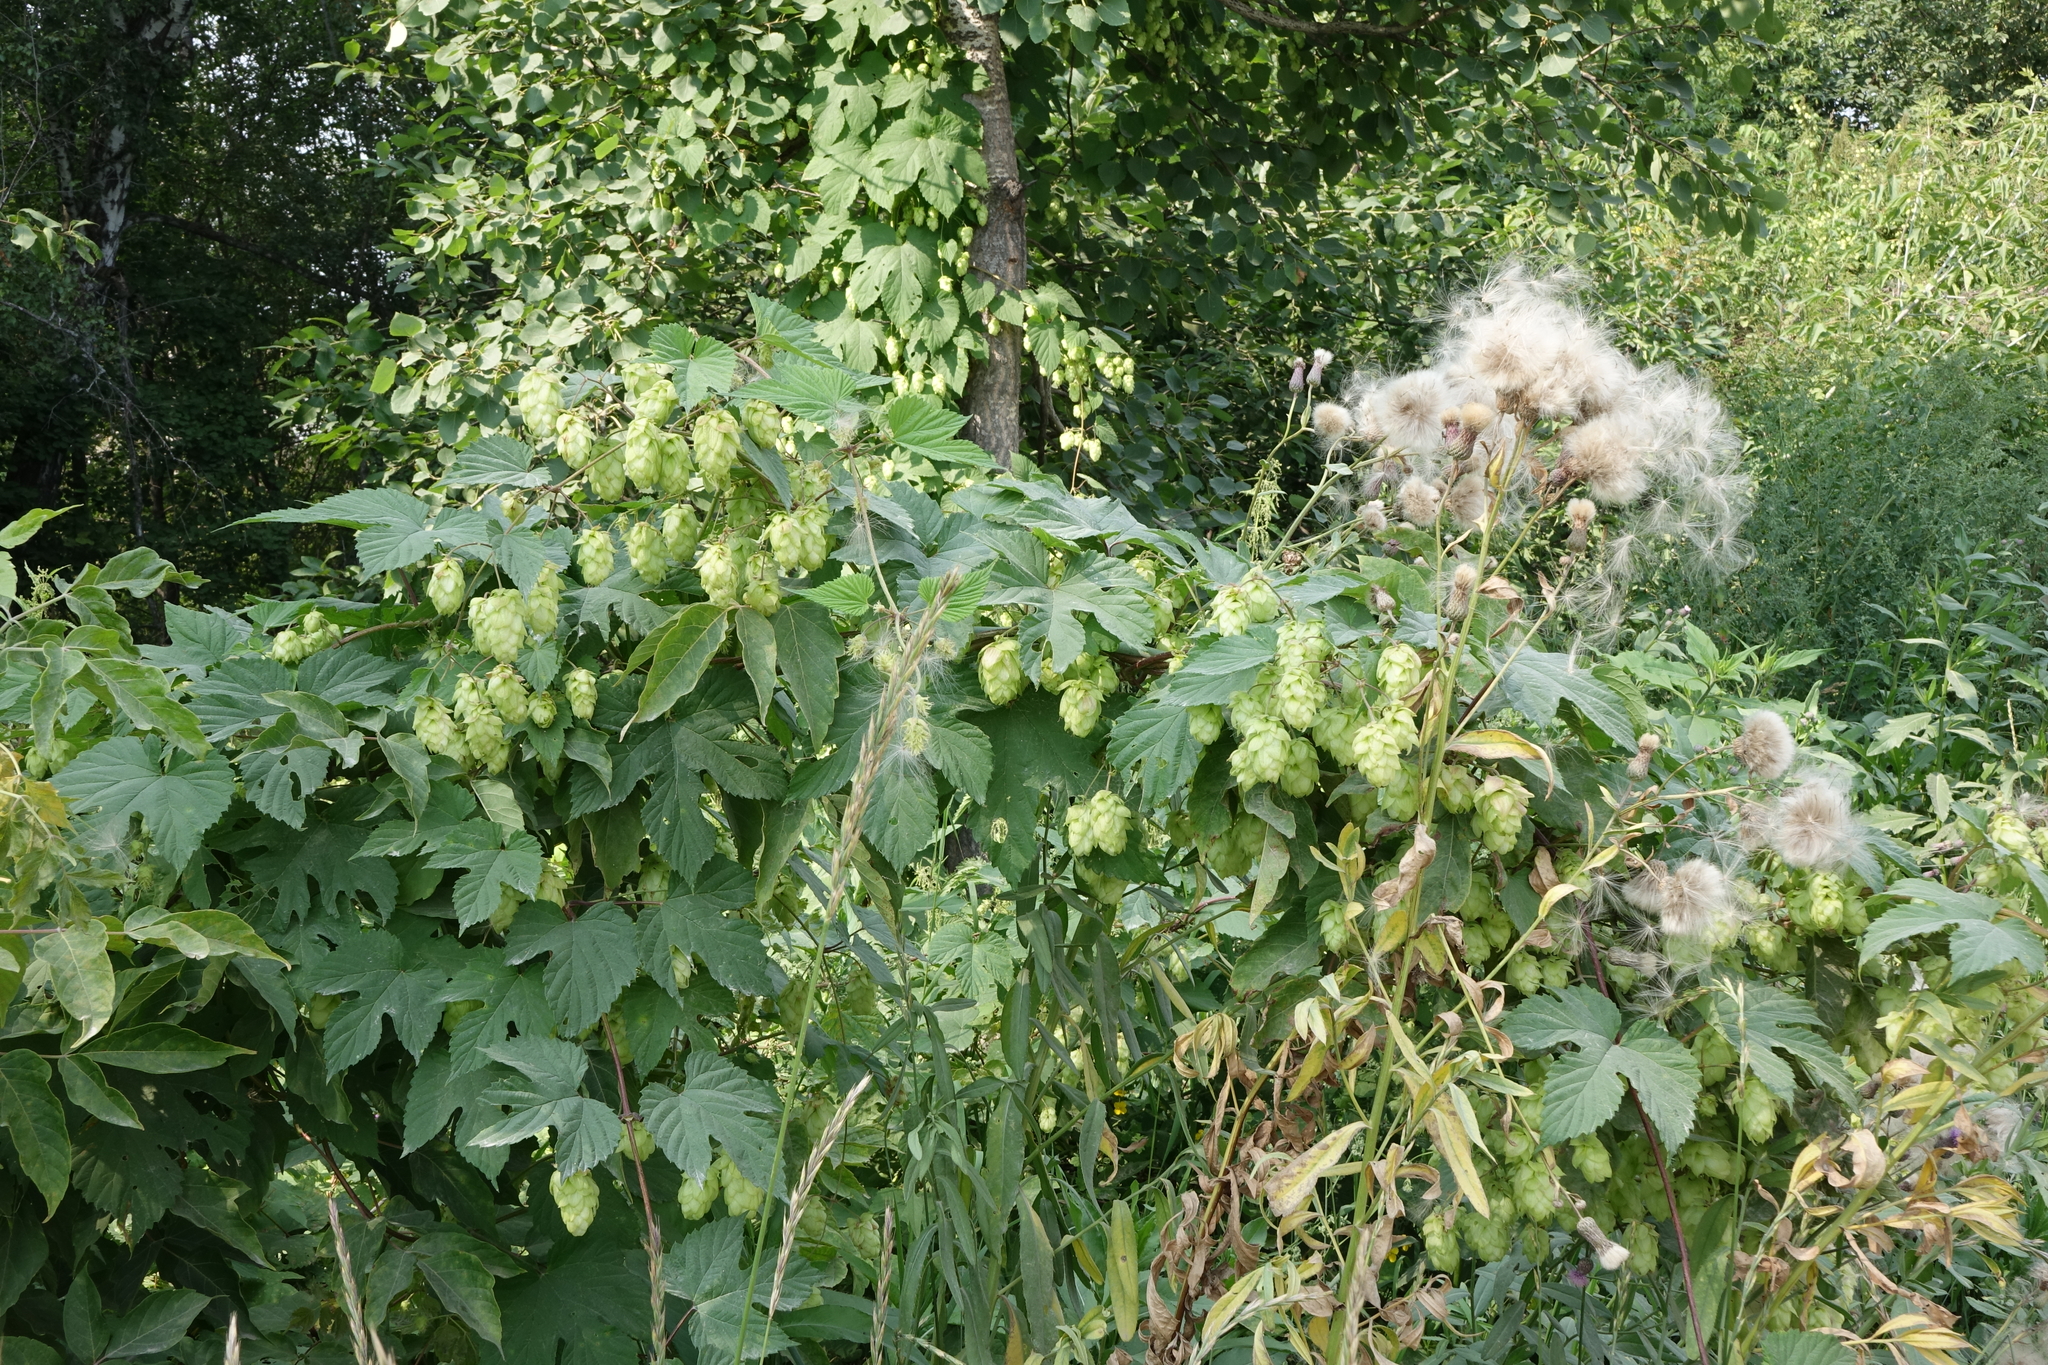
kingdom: Plantae
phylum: Tracheophyta
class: Magnoliopsida
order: Rosales
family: Cannabaceae
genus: Humulus
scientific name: Humulus lupulus
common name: Hop
